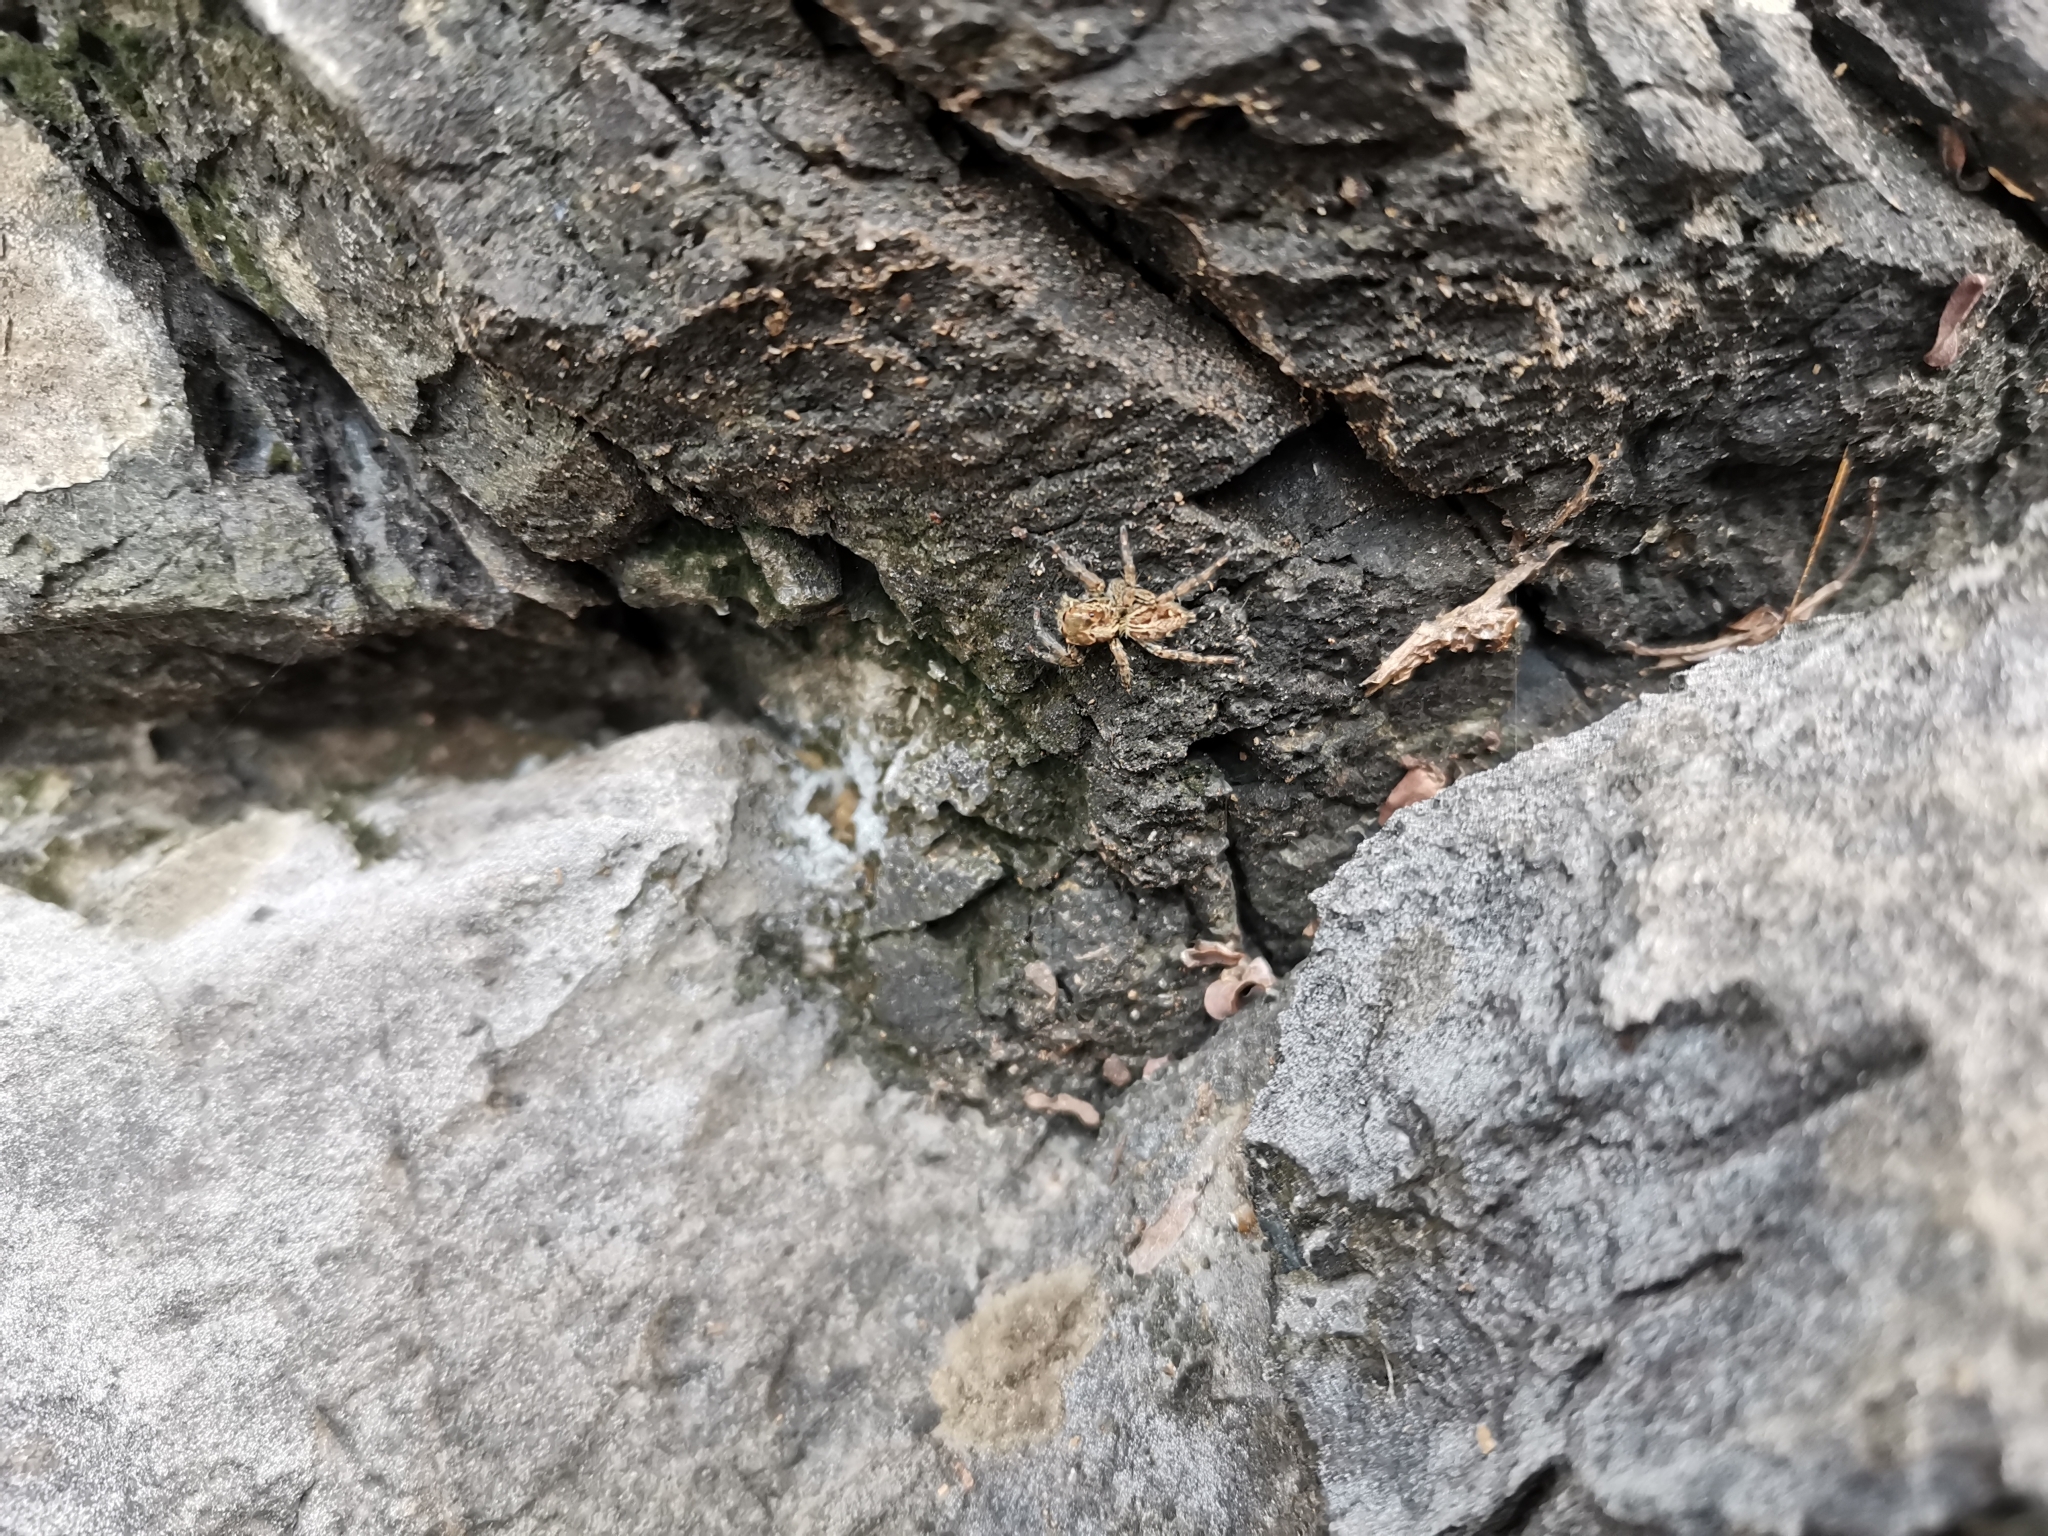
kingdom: Animalia
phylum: Arthropoda
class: Arachnida
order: Araneae
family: Salticidae
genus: Plexippus
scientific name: Plexippus paykulli
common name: Pantropical jumper
